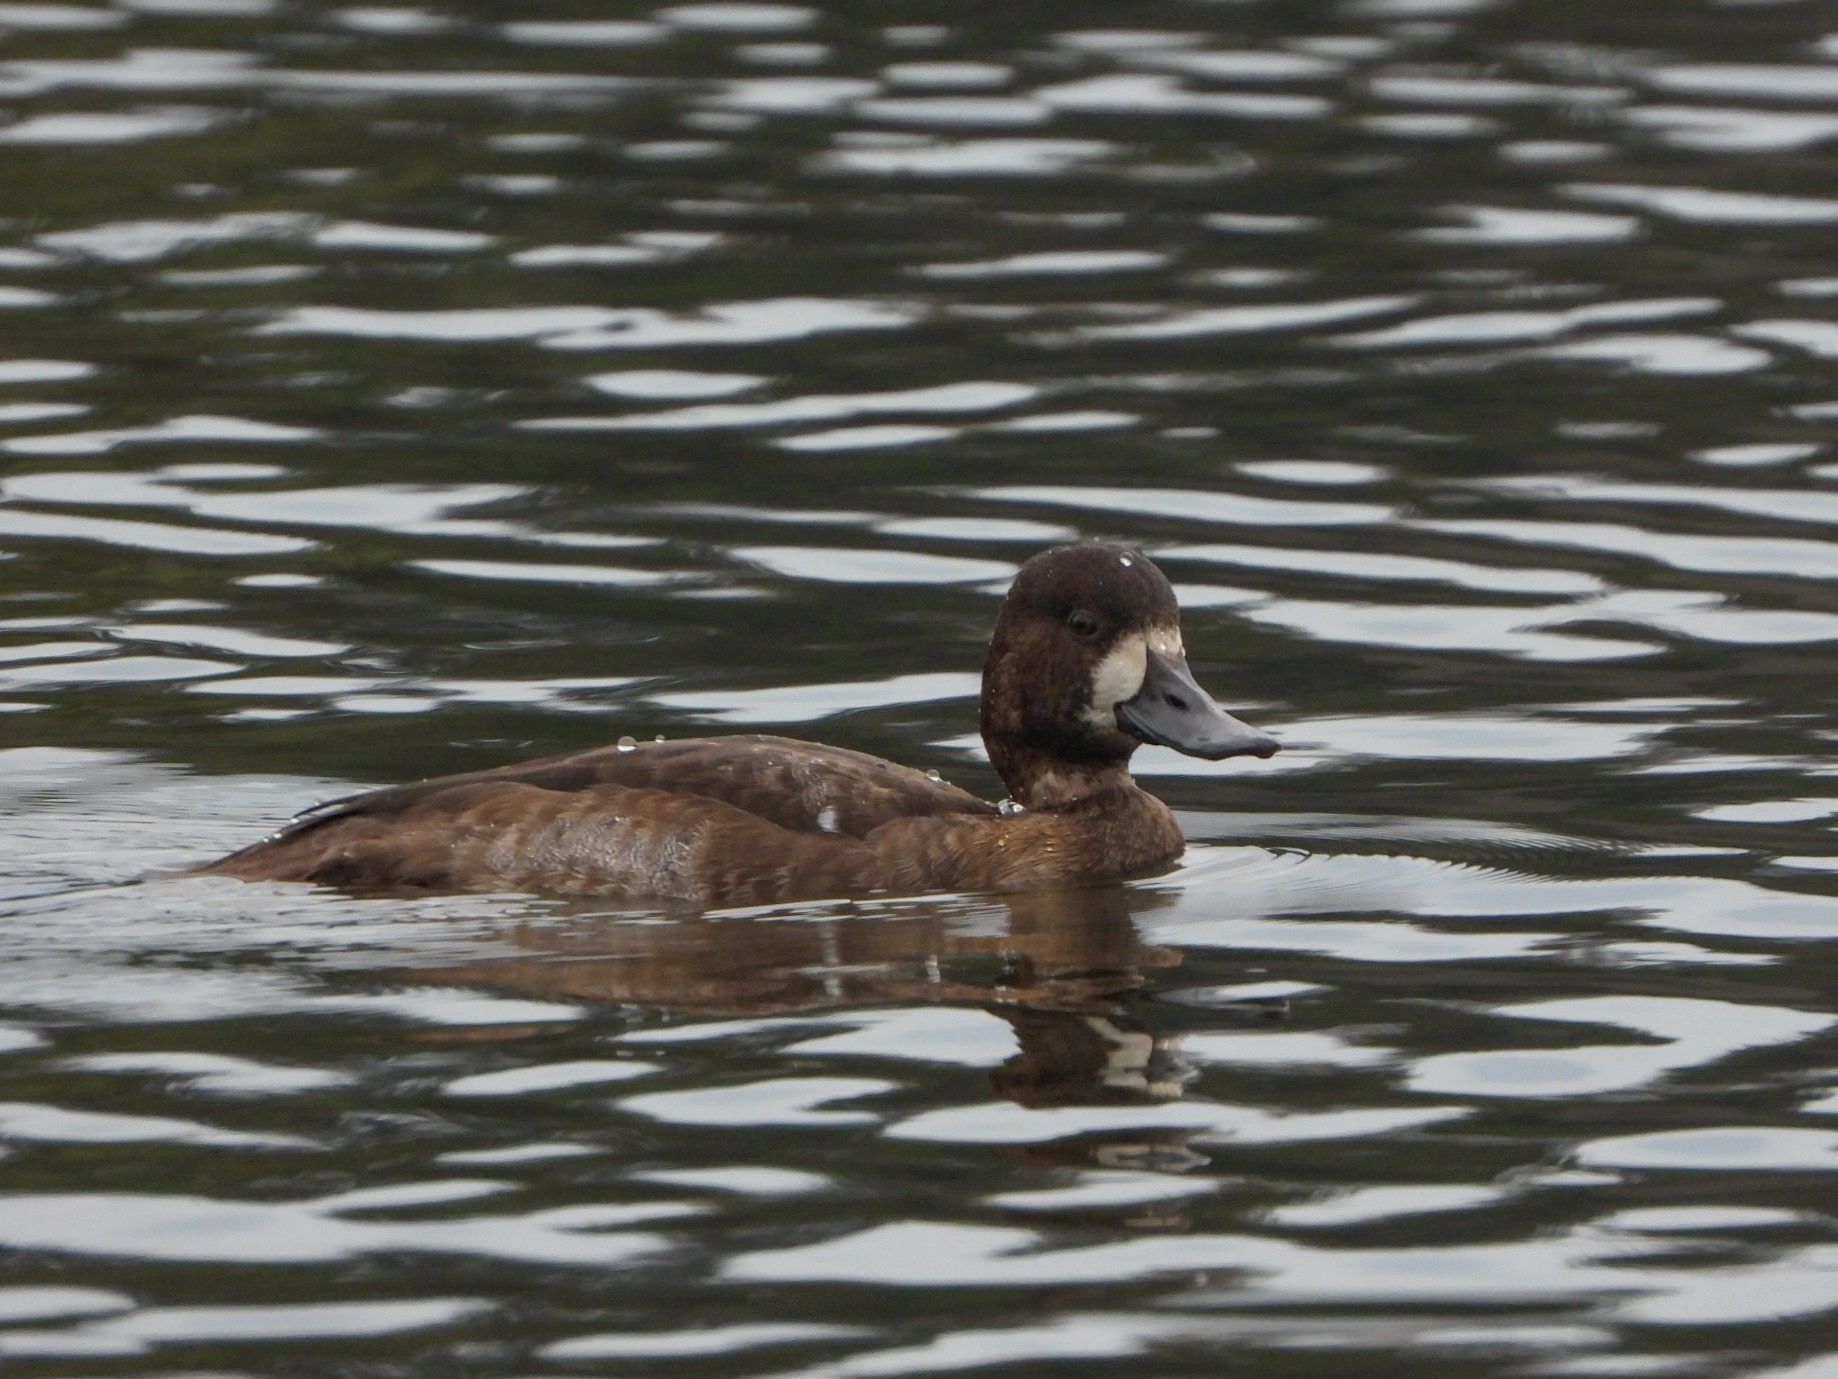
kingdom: Animalia
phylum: Chordata
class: Aves
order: Anseriformes
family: Anatidae
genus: Aythya
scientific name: Aythya marila
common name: Greater scaup
